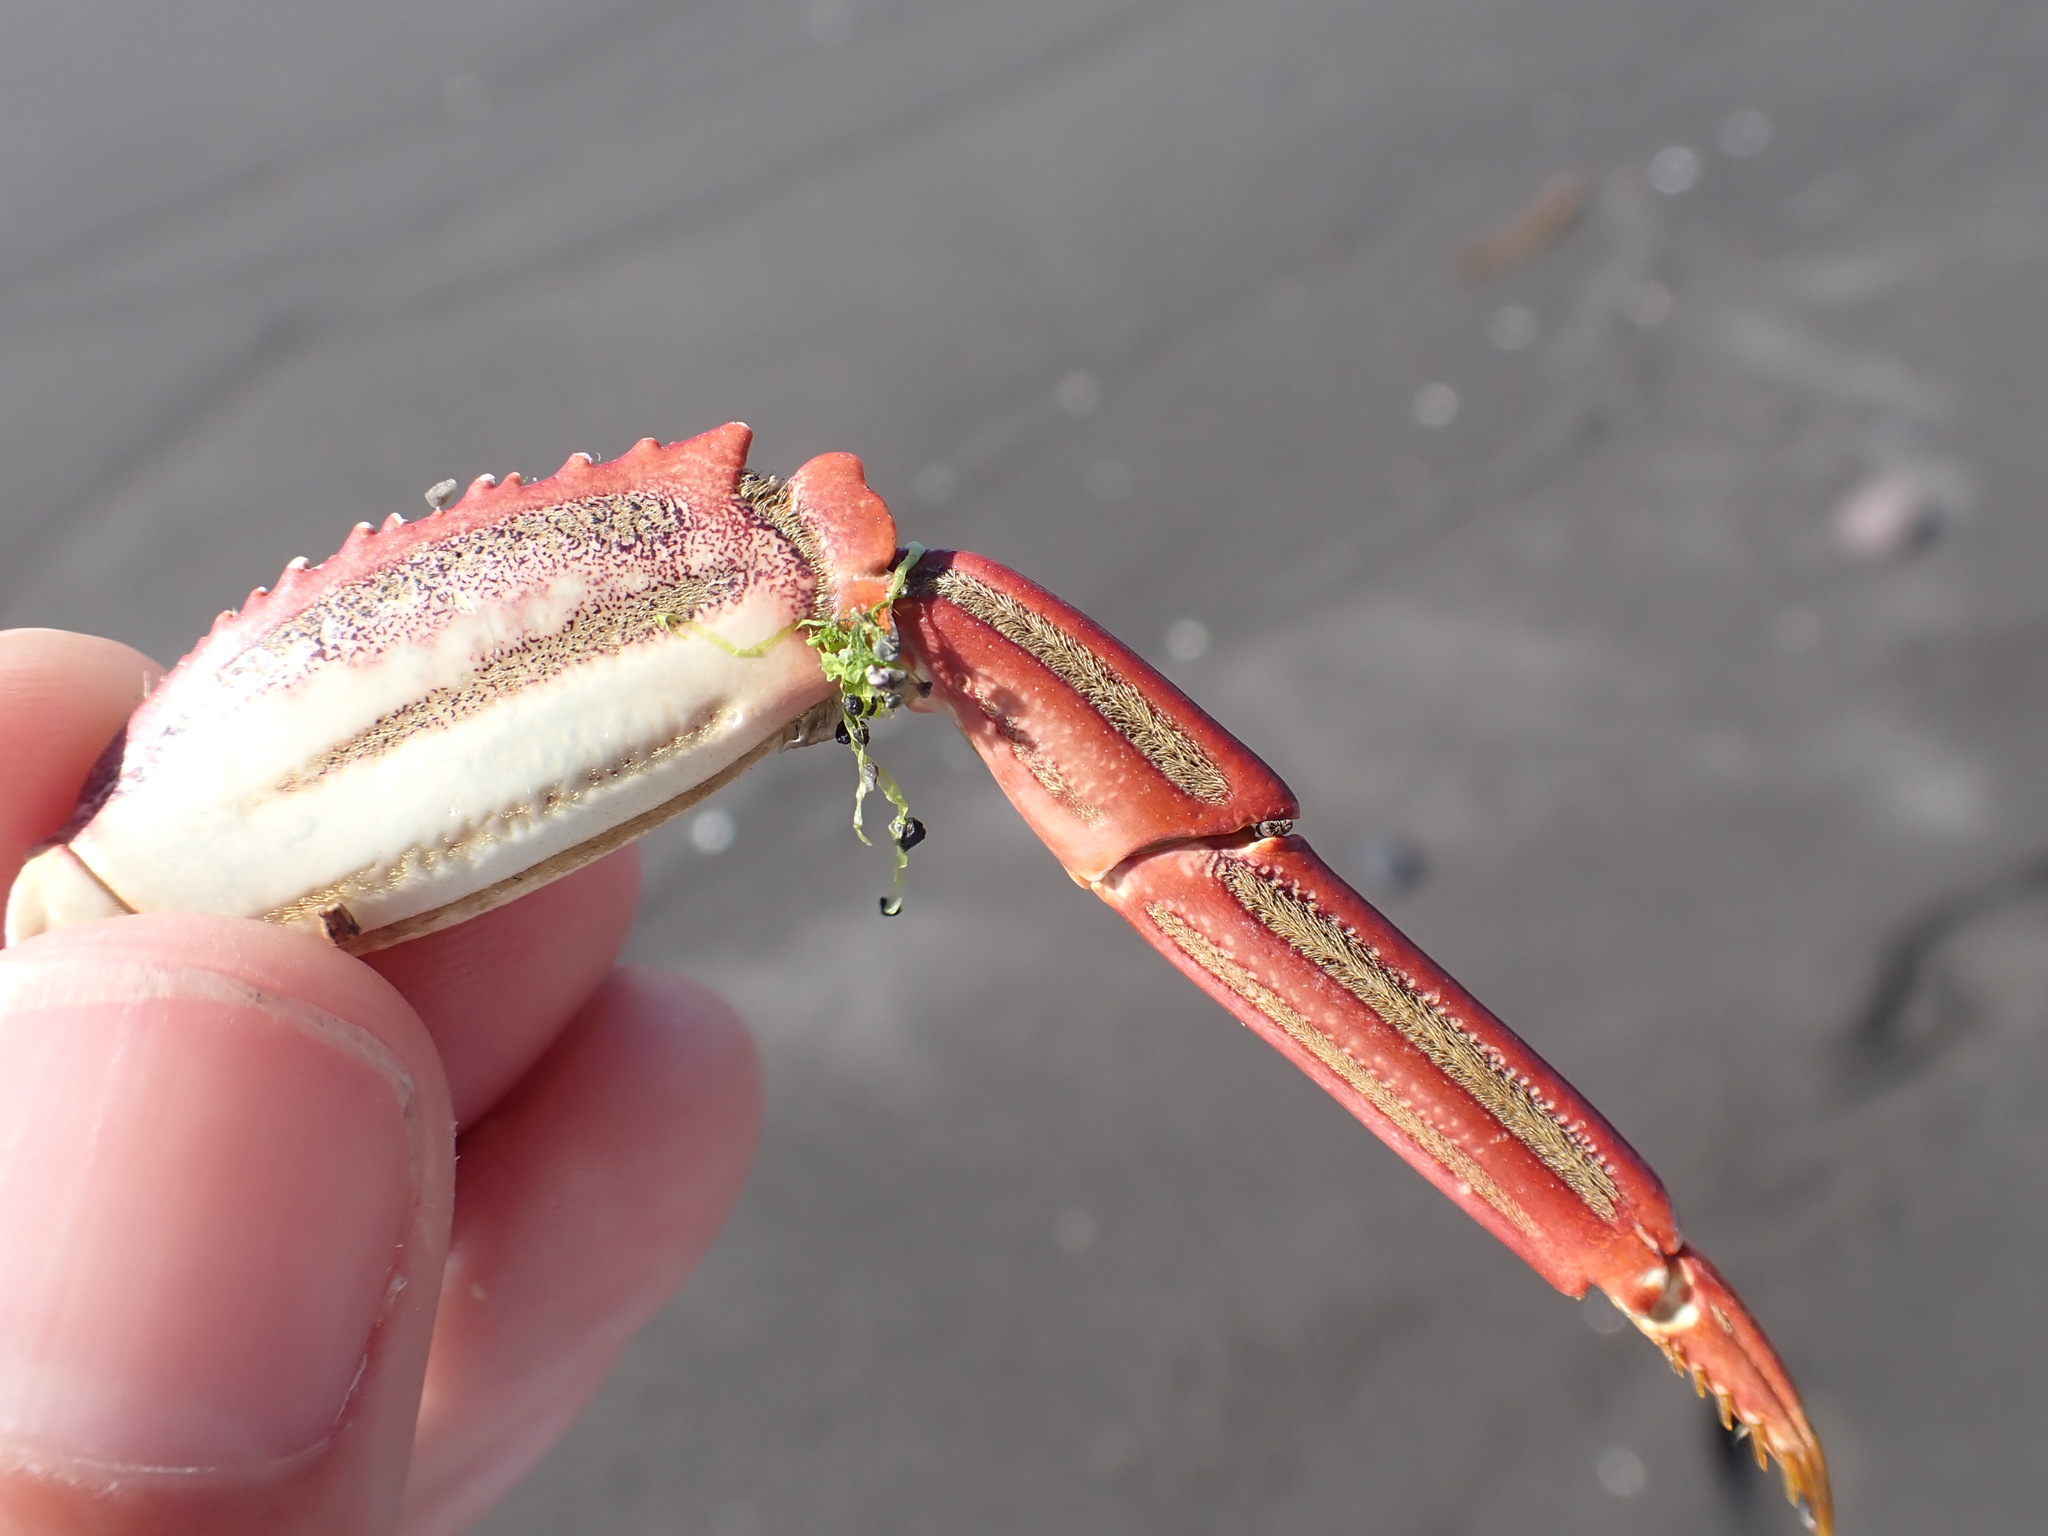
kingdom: Animalia
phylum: Arthropoda
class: Malacostraca
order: Decapoda
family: Plagusiidae
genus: Guinusia
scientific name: Guinusia chabrus
